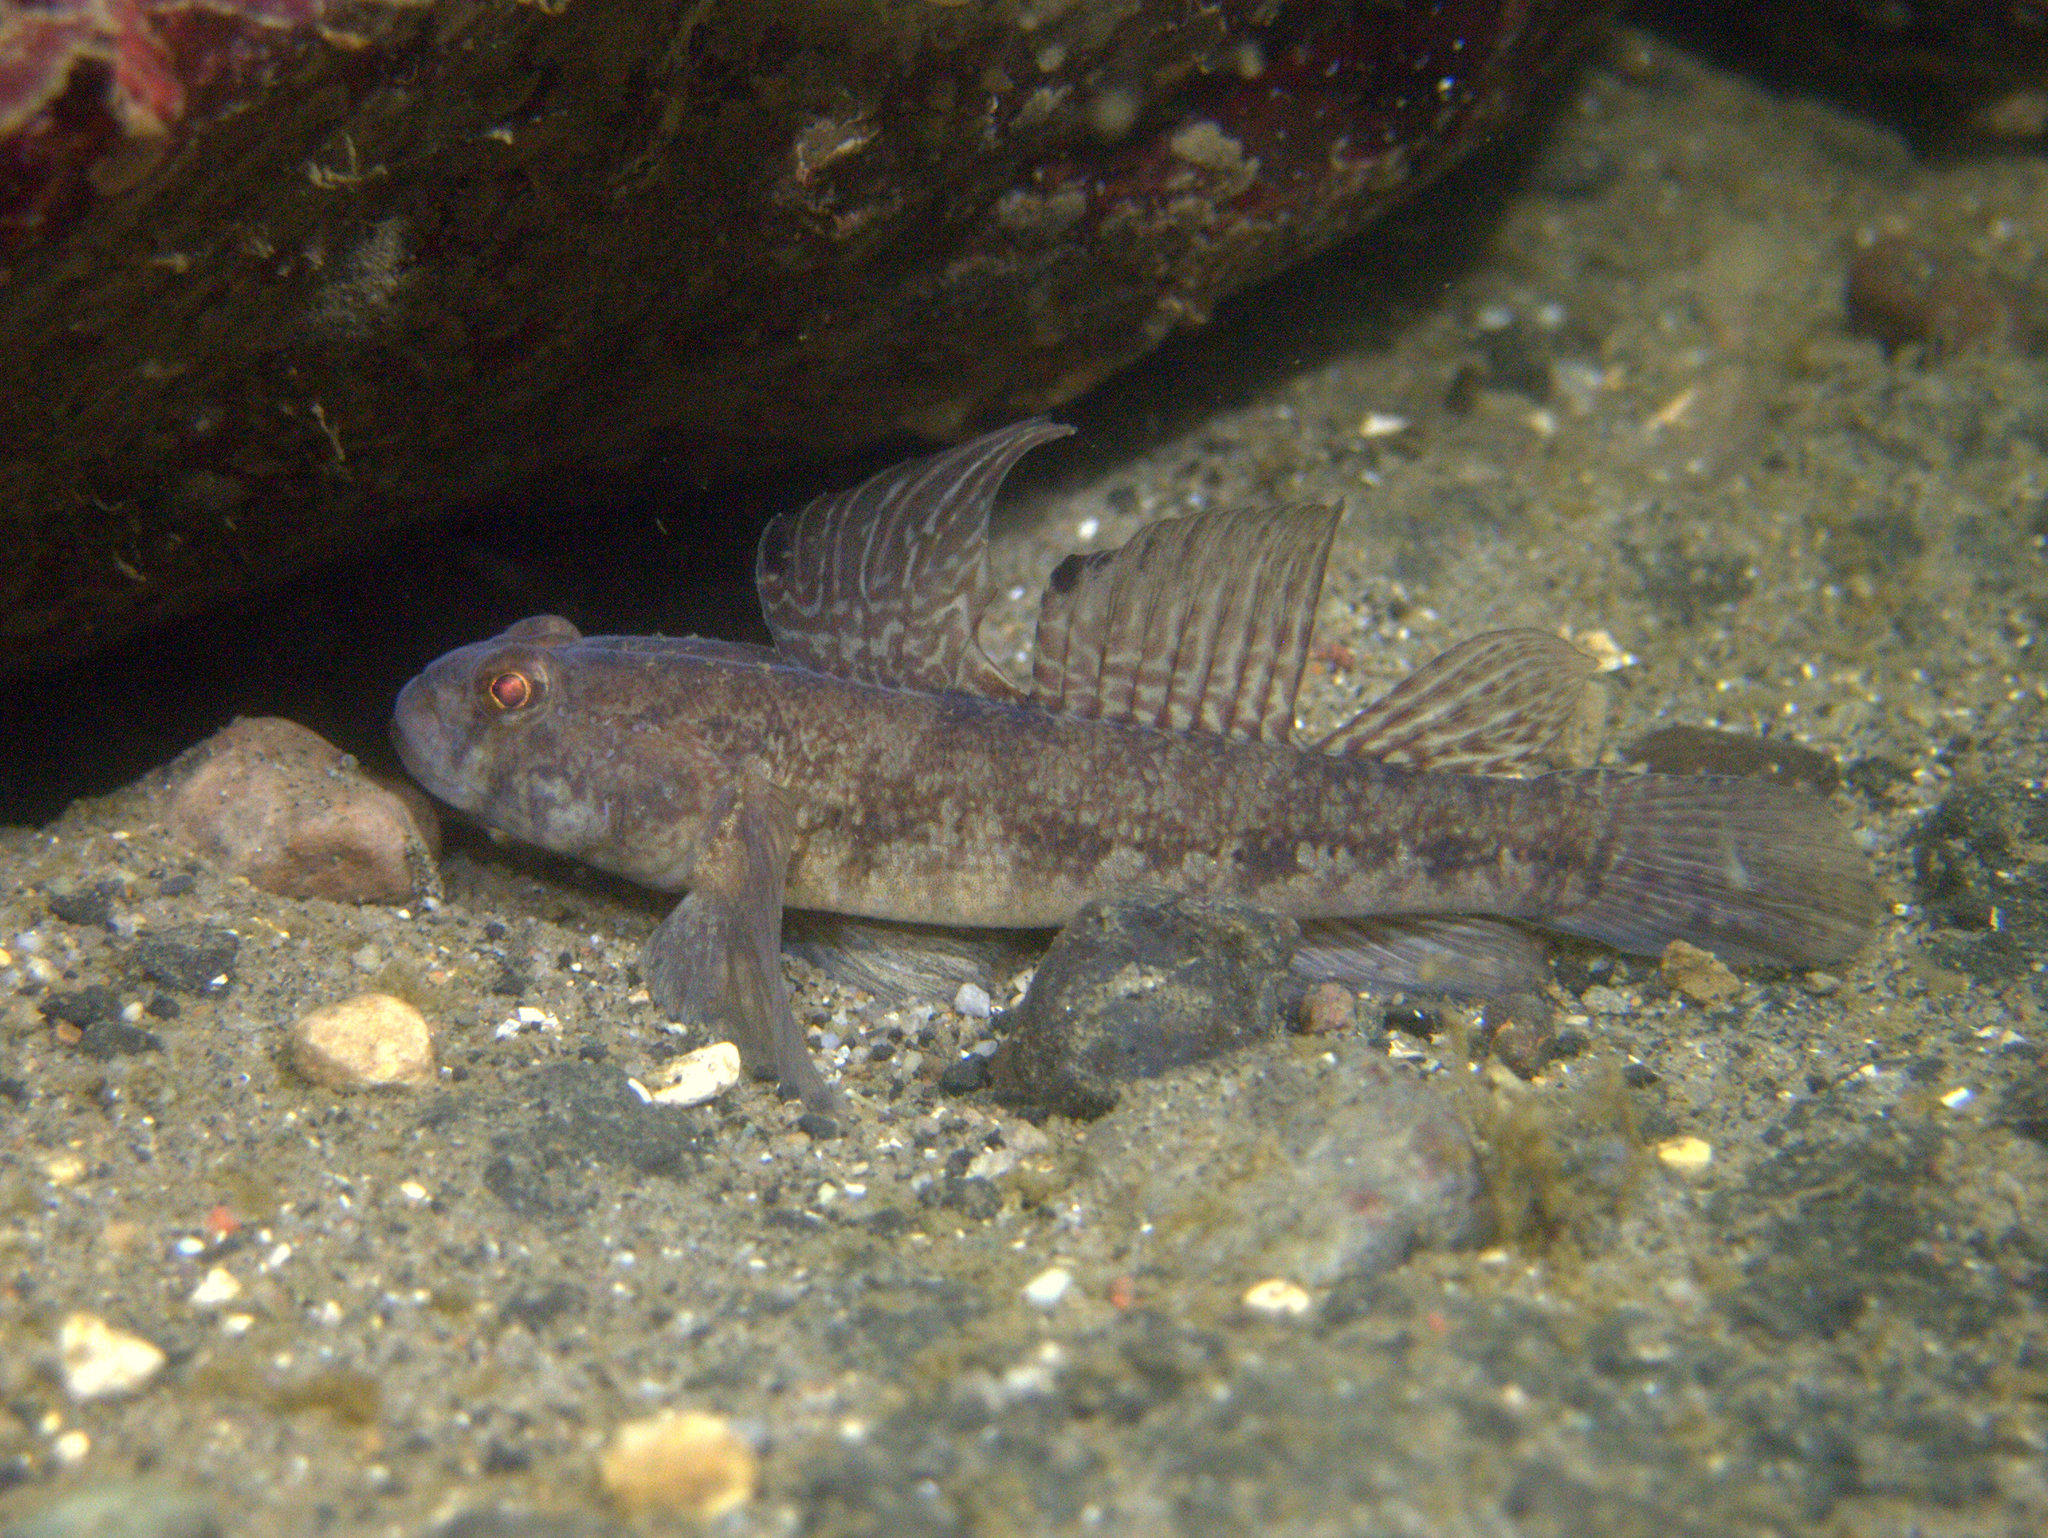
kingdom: Animalia
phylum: Chordata
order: Perciformes
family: Gobiidae
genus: Gobius
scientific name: Gobius niger
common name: Black goby
